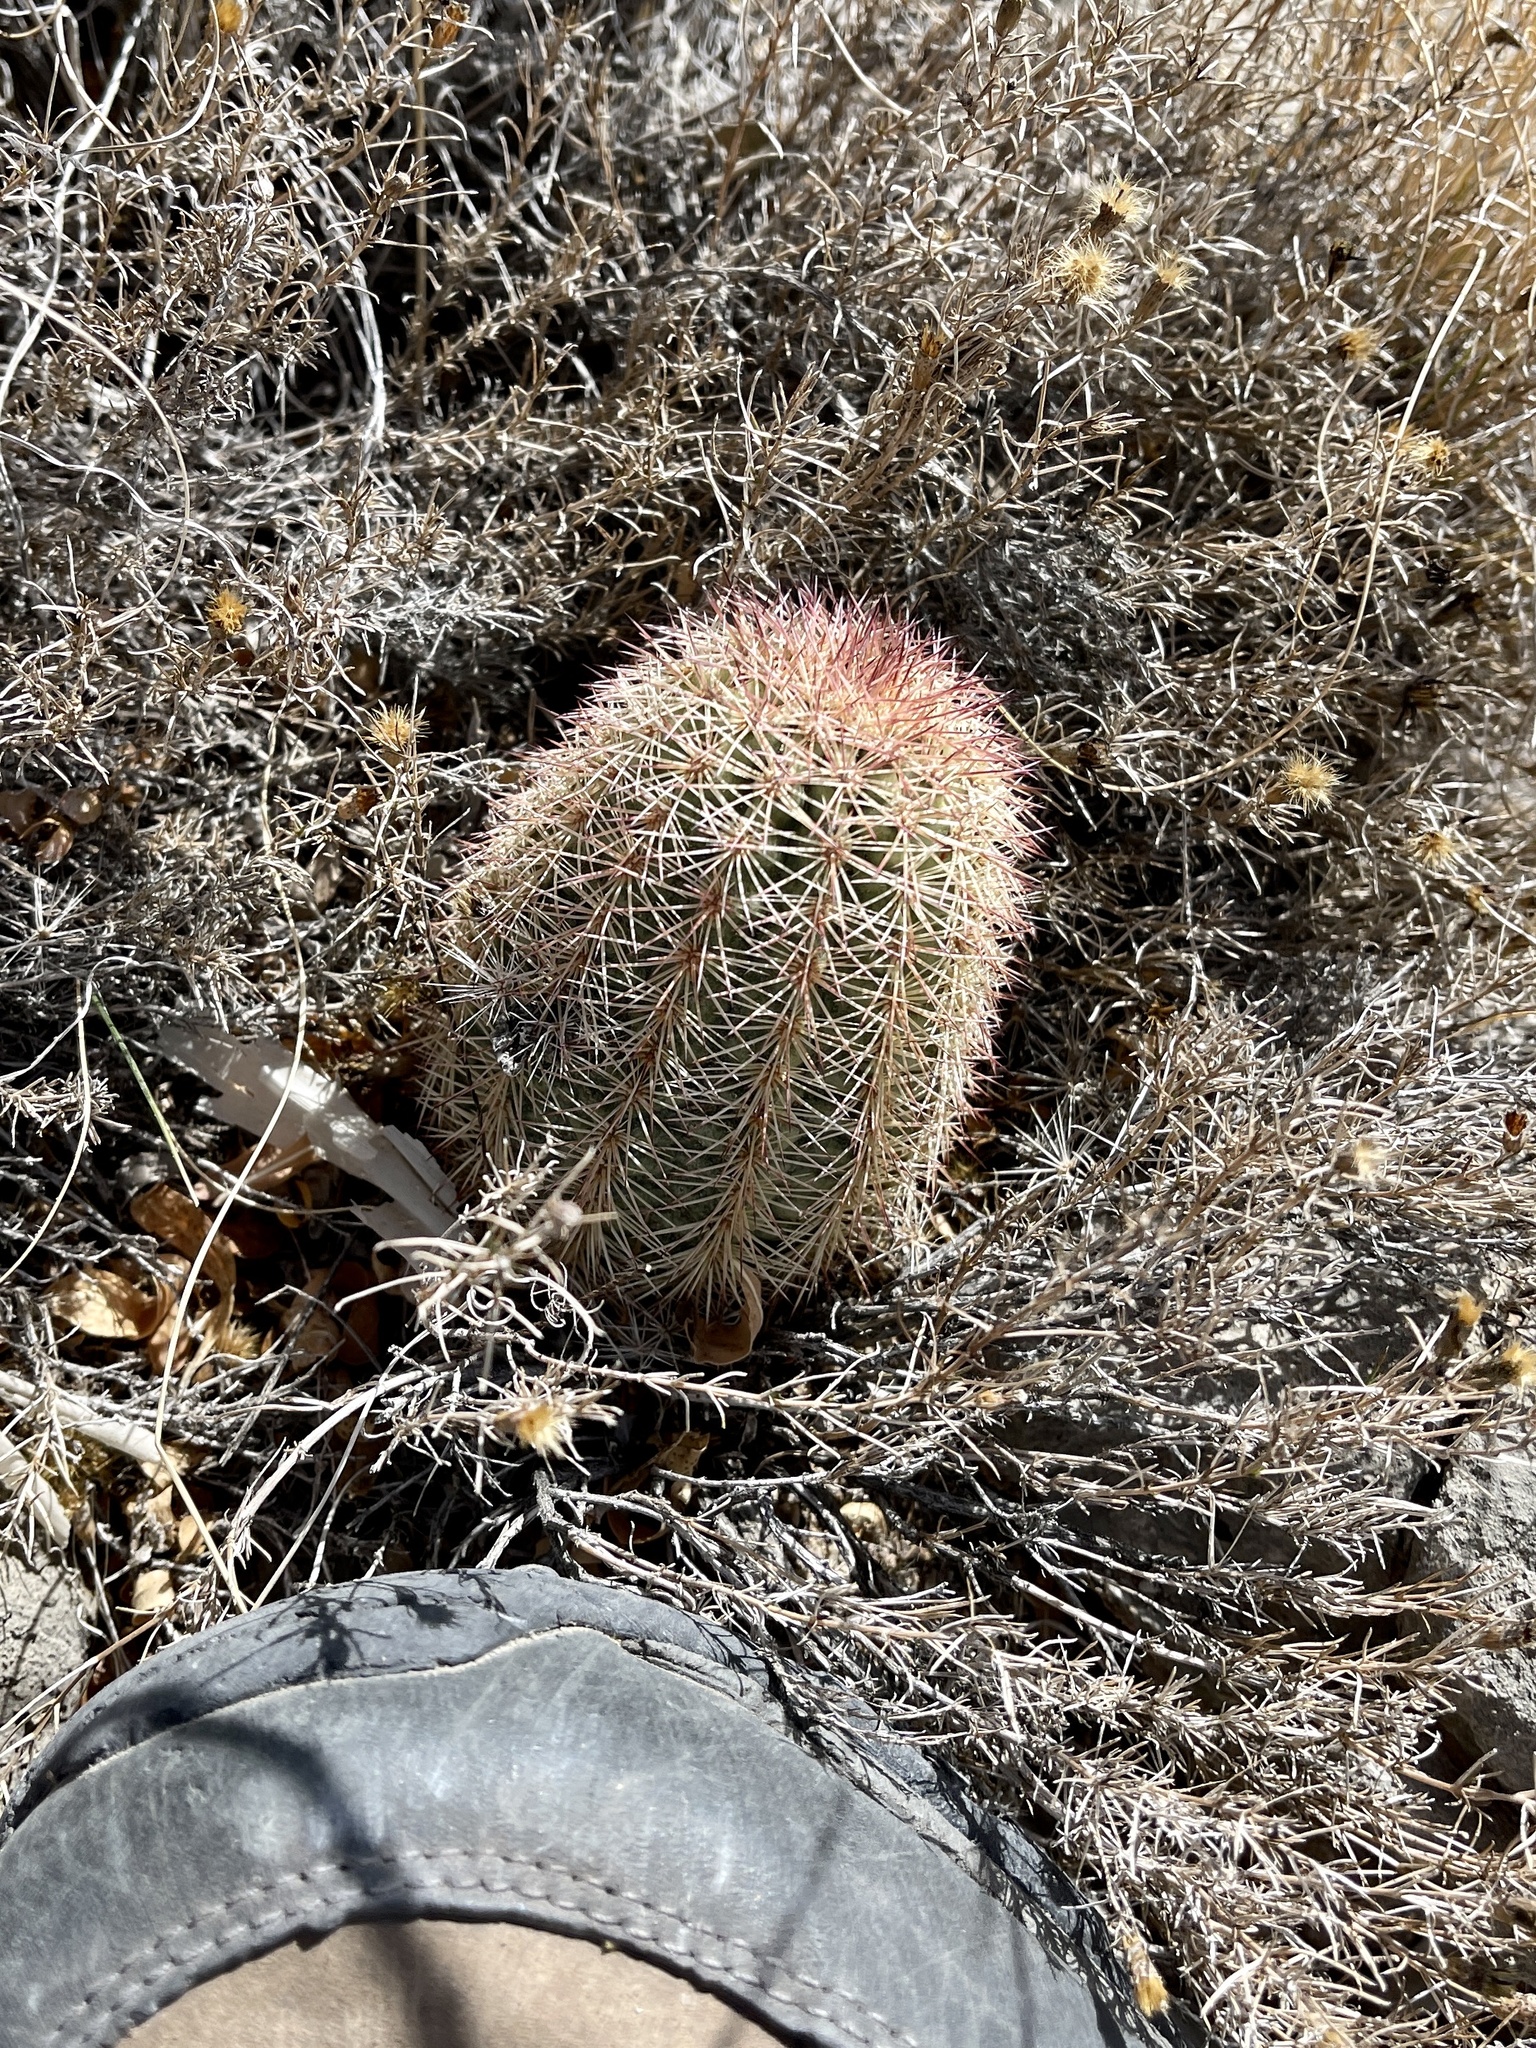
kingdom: Plantae
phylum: Tracheophyta
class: Magnoliopsida
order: Caryophyllales
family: Cactaceae
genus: Echinocereus
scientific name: Echinocereus dasyacanthus
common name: Spiny hedgehog cactus
